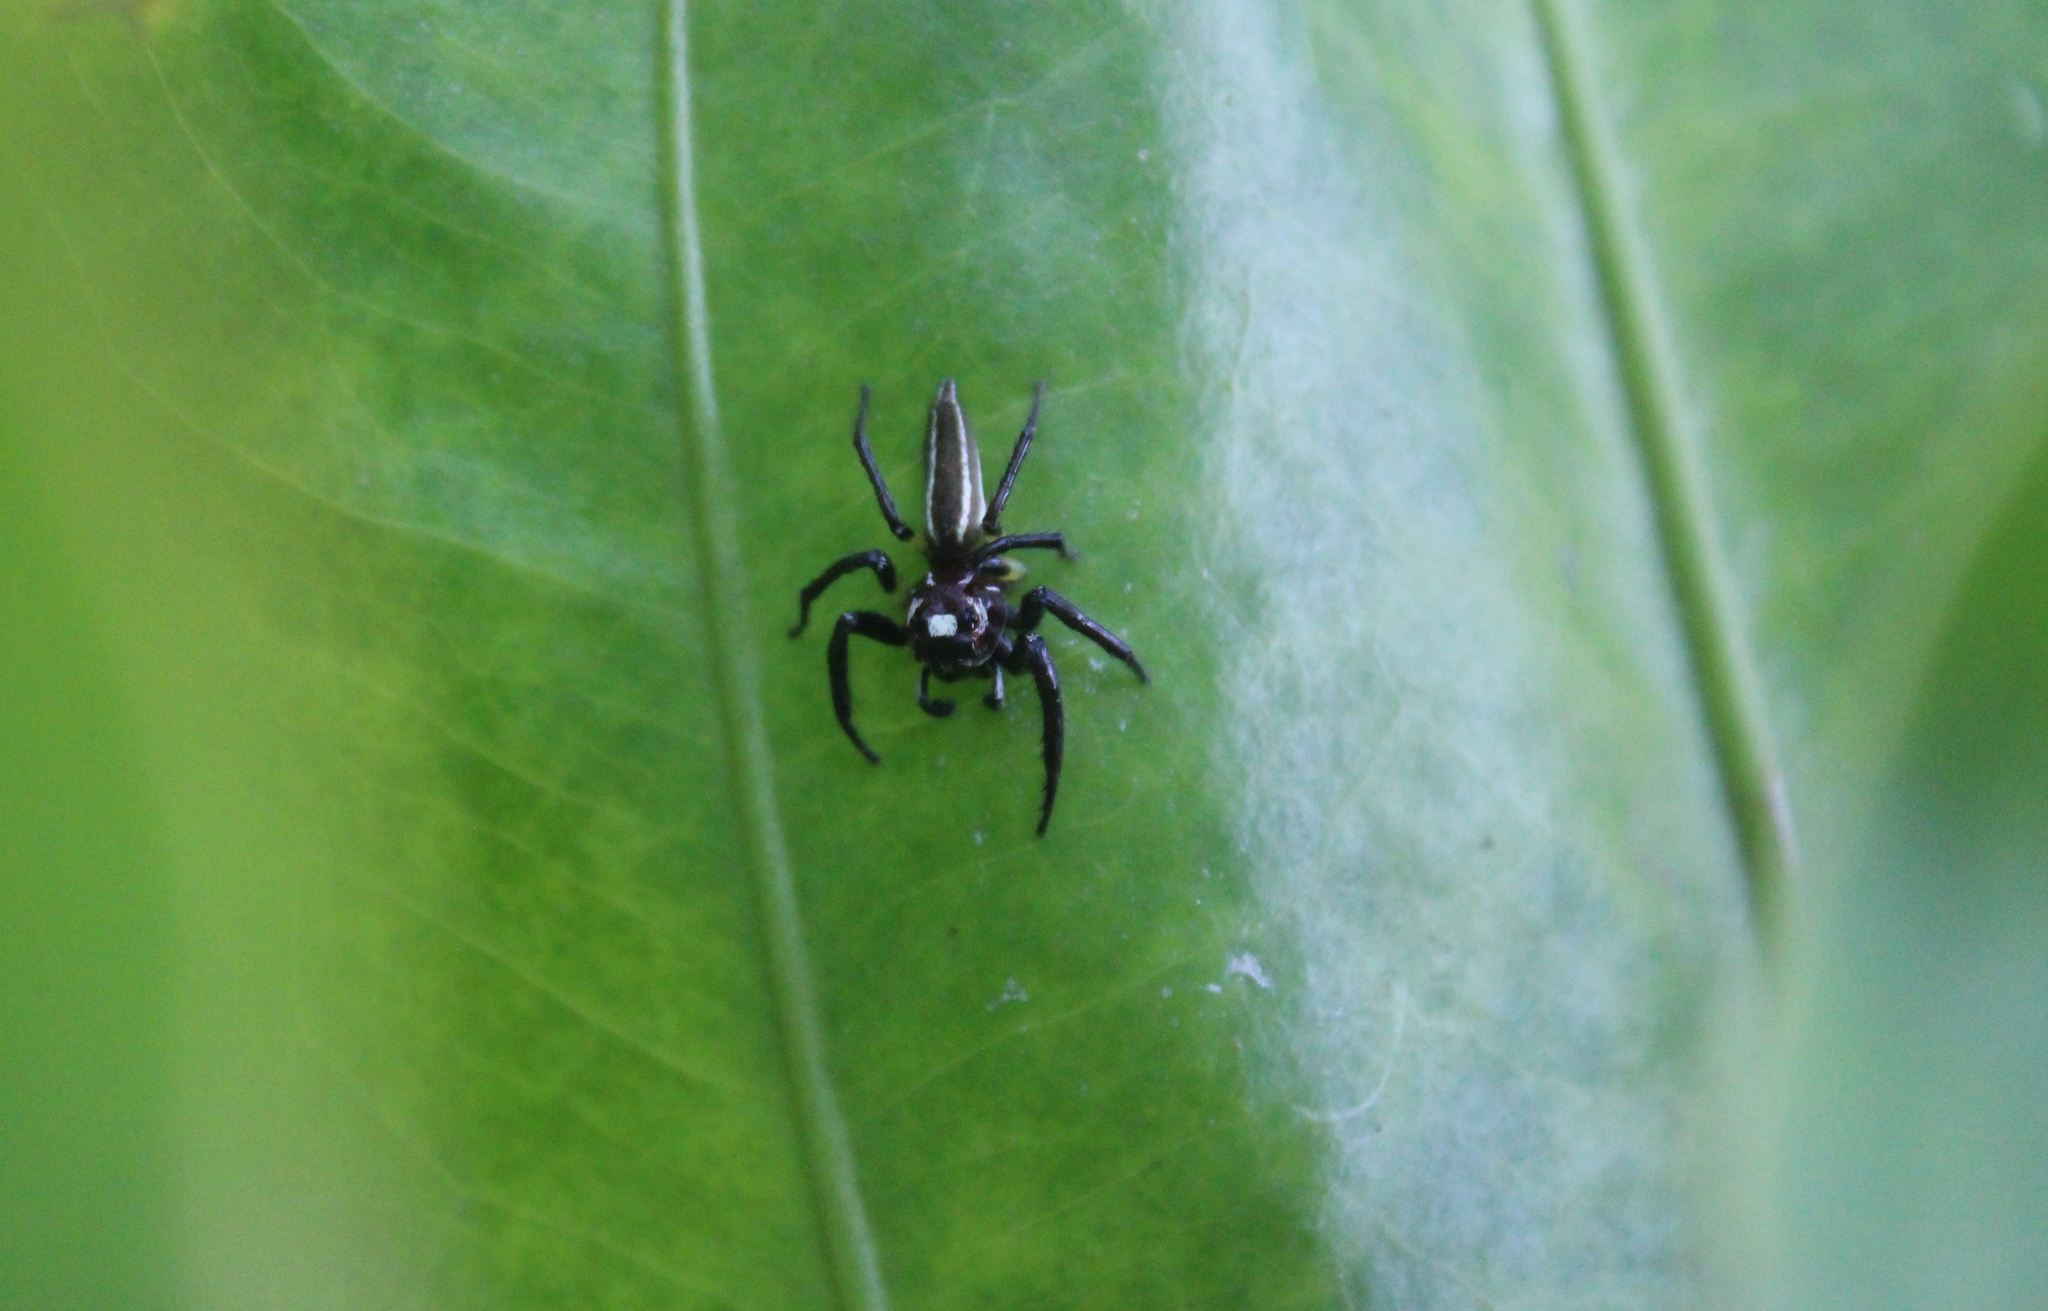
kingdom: Animalia
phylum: Arthropoda
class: Arachnida
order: Araneae
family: Salticidae
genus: Colonus
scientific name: Colonus sylvanus
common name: Jumping spiders
